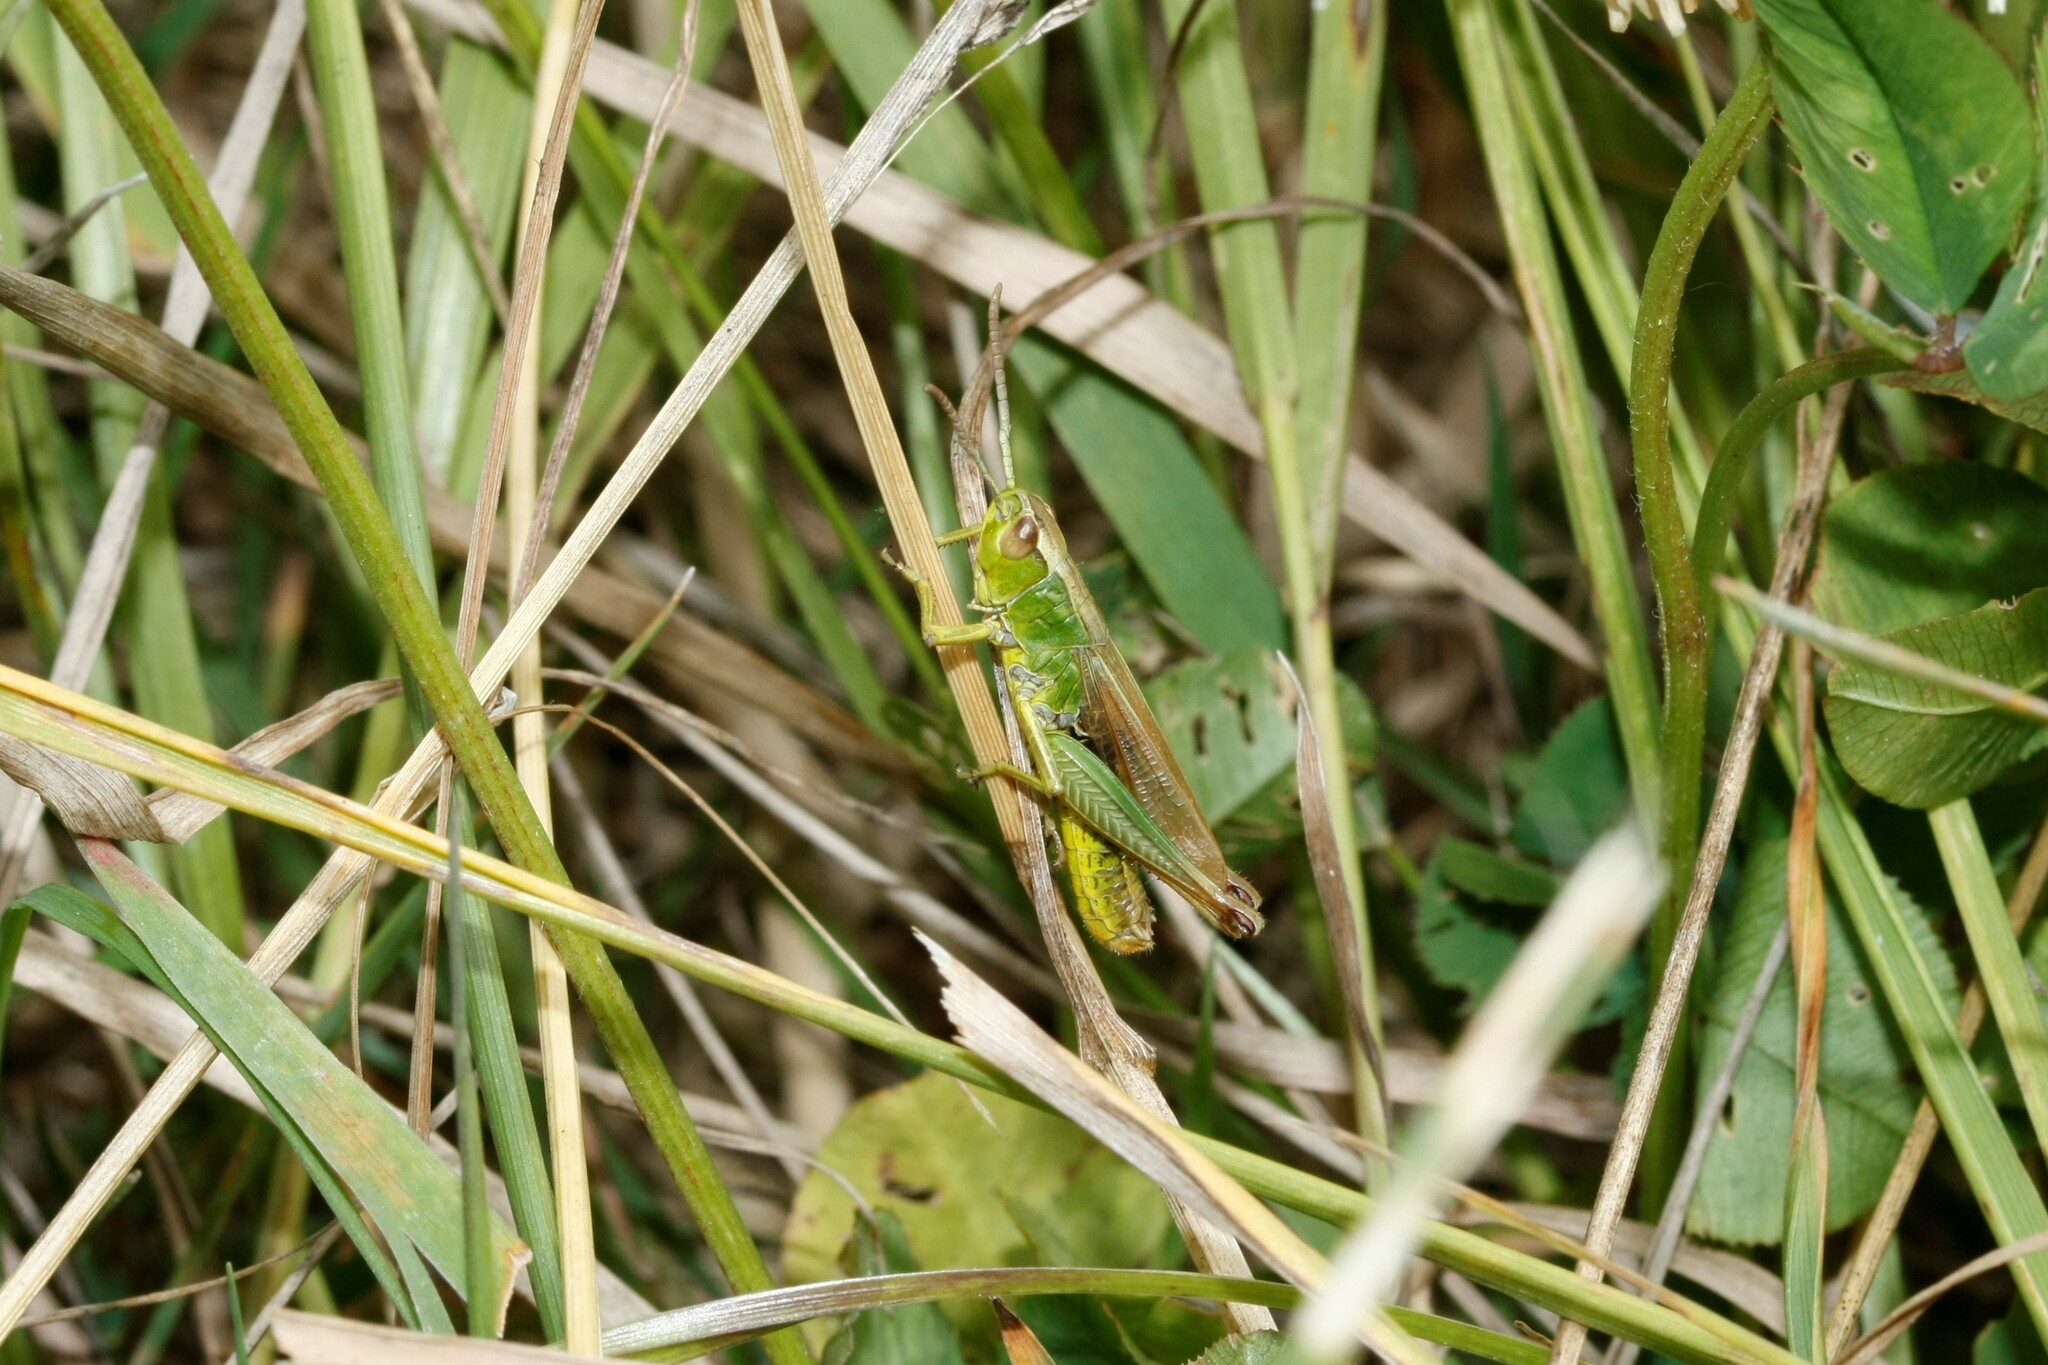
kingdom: Animalia
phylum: Arthropoda
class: Insecta
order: Orthoptera
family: Acrididae
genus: Pseudochorthippus
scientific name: Pseudochorthippus parallelus
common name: Meadow grasshopper
